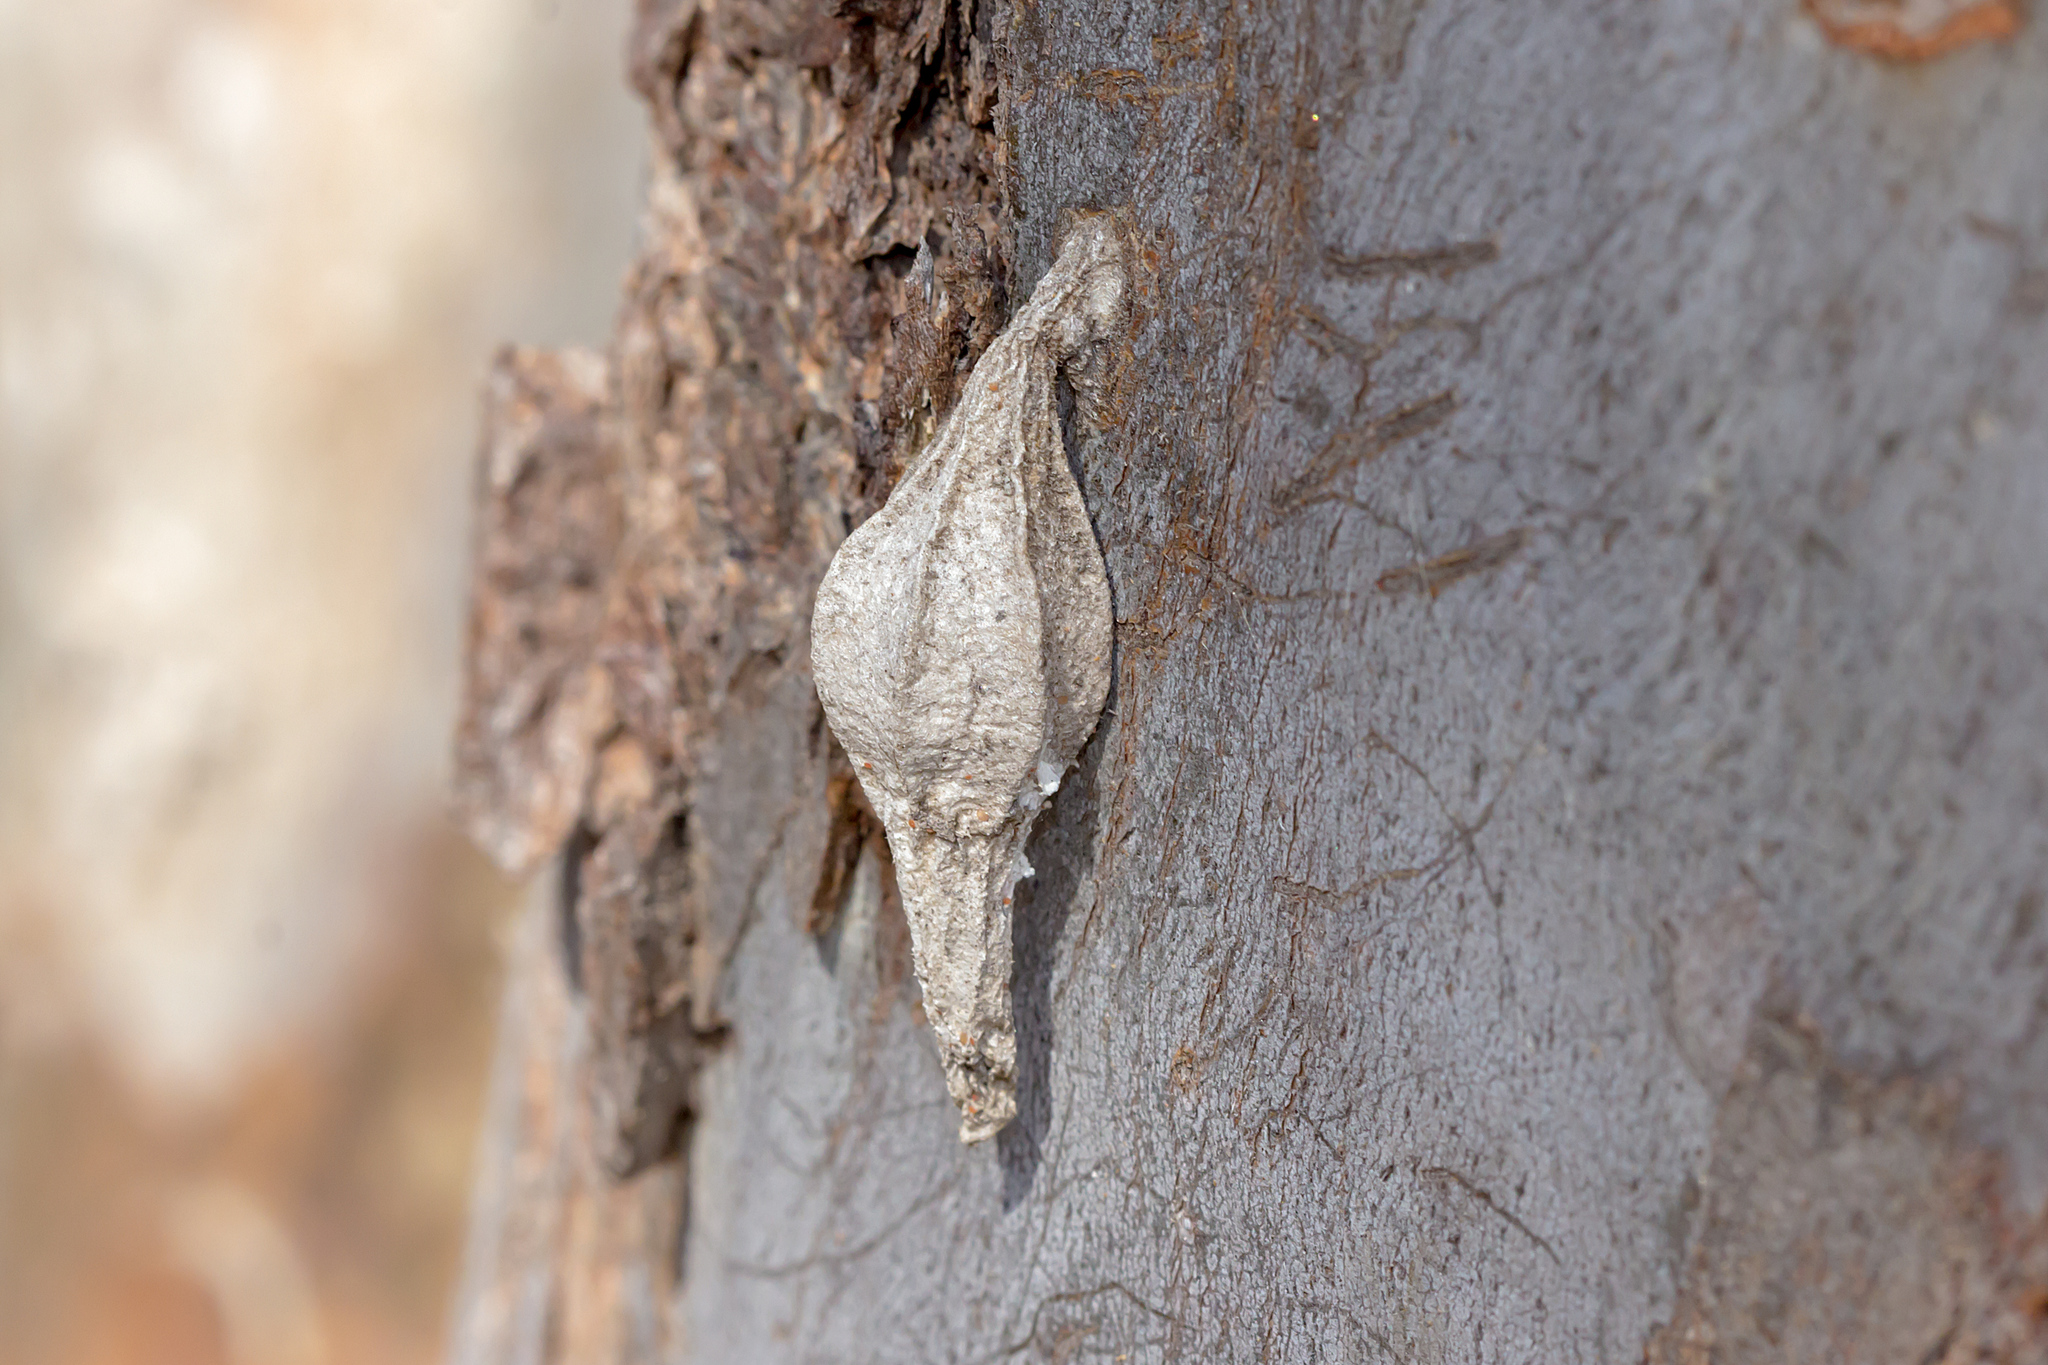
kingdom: Animalia
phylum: Arthropoda
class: Insecta
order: Lepidoptera
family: Psychidae
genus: Hyalarcta
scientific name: Hyalarcta nigrescens
